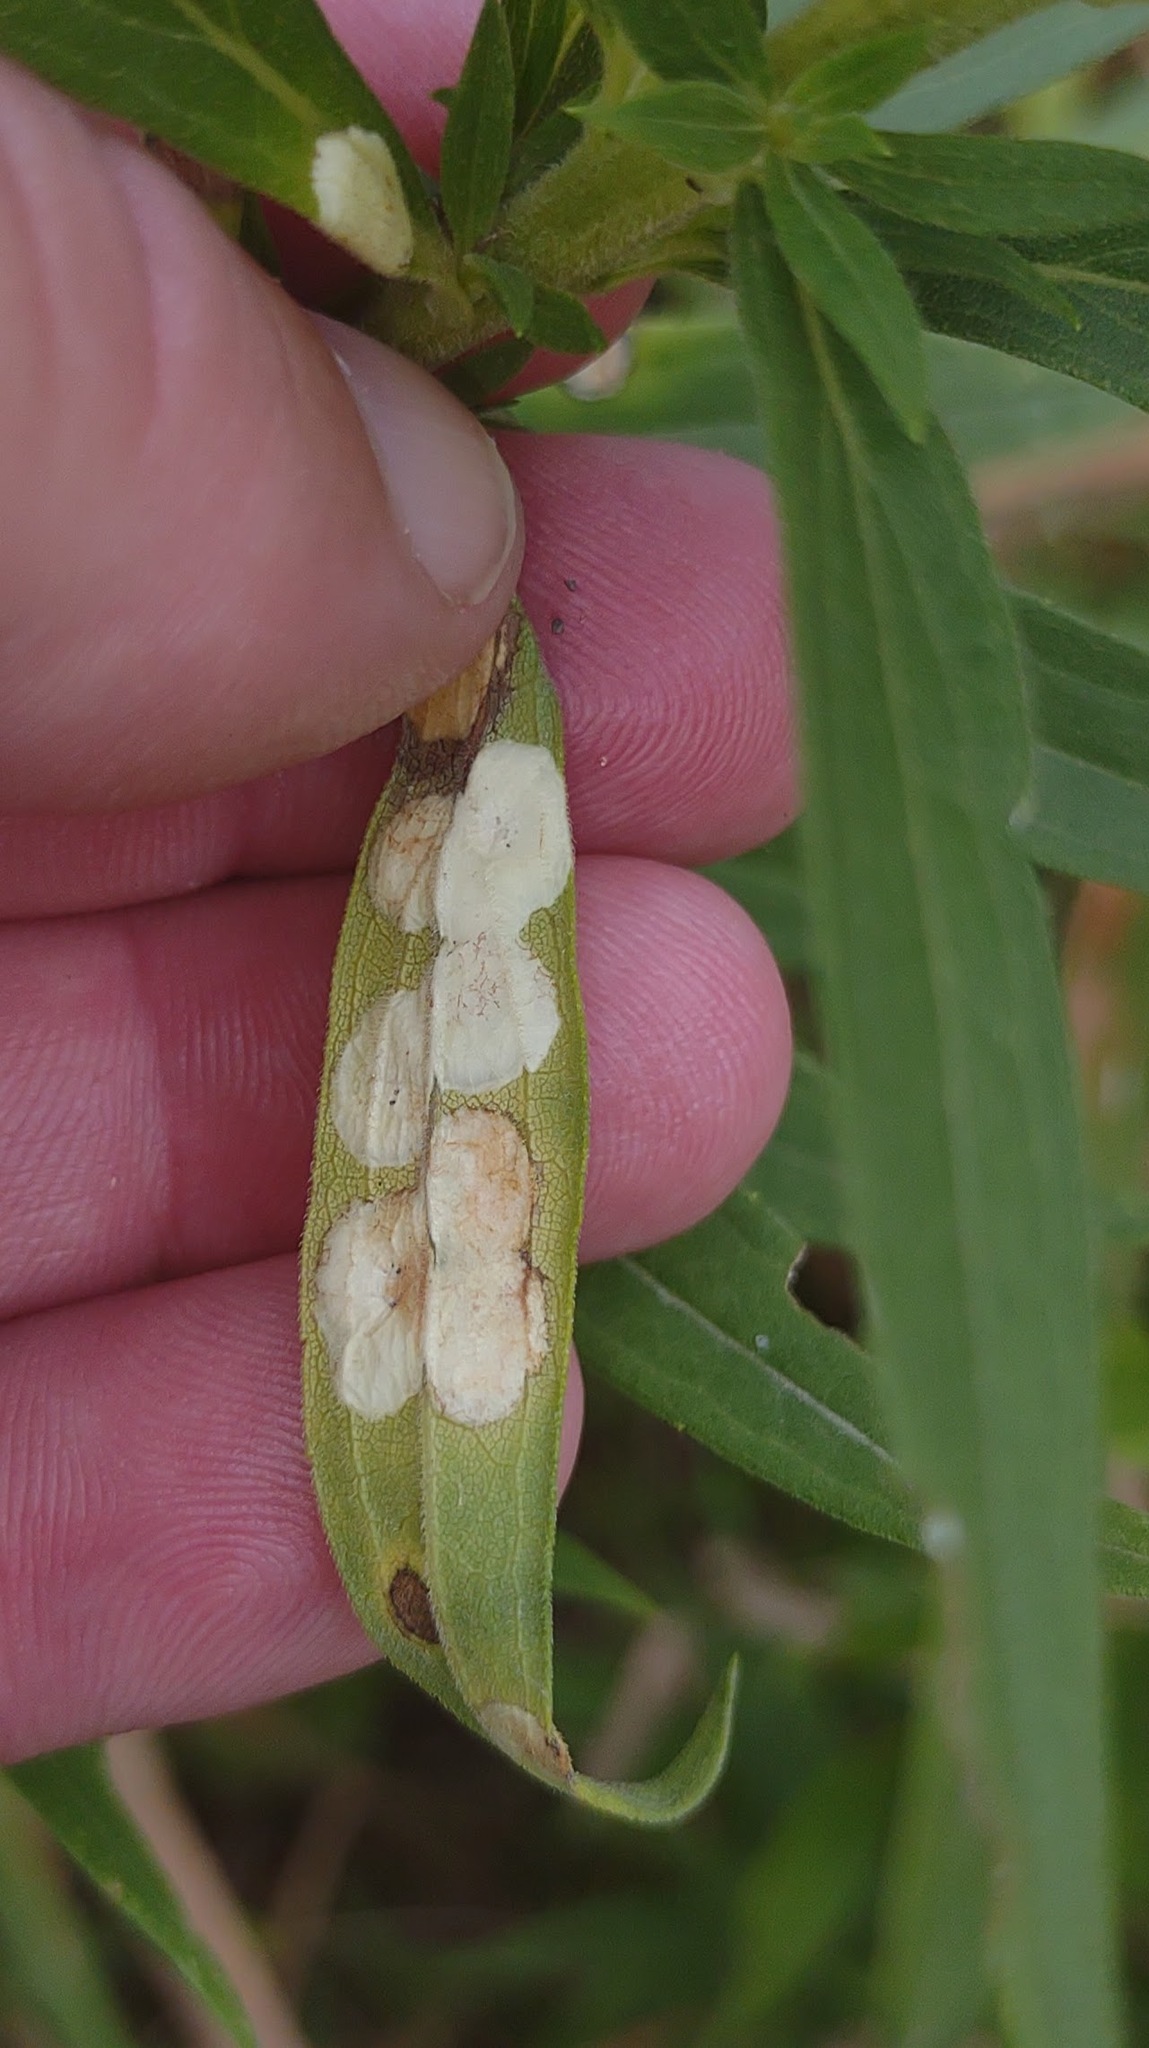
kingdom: Animalia
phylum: Arthropoda
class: Insecta
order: Diptera
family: Cecidomyiidae
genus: Asteromyia
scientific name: Asteromyia carbonifera
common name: Carbonifera goldenrod gall midge
